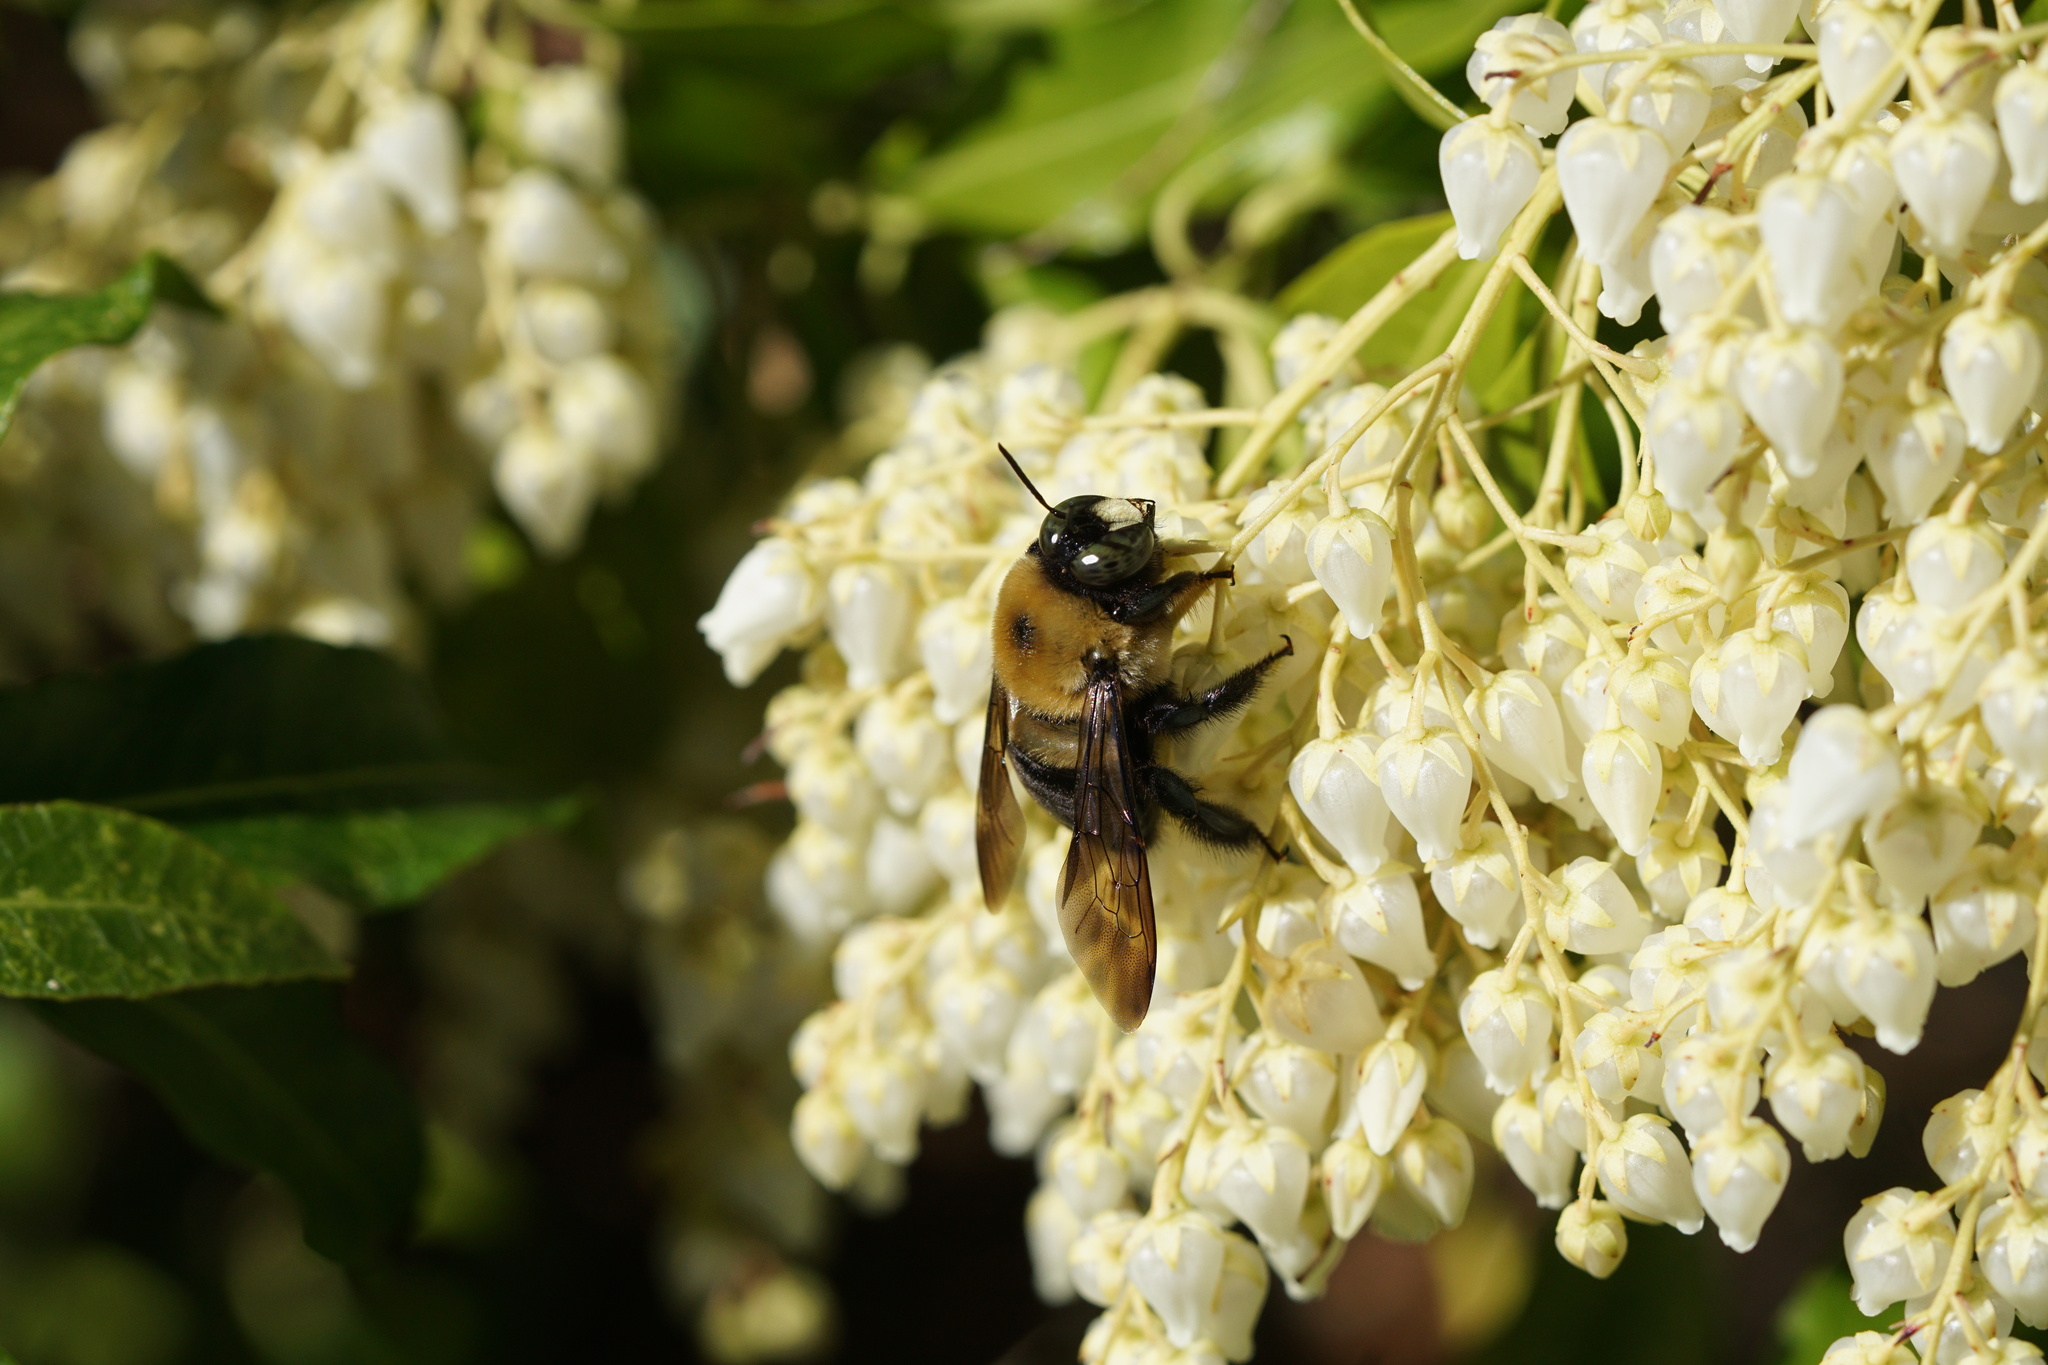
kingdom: Animalia
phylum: Arthropoda
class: Insecta
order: Hymenoptera
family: Apidae
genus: Xylocopa
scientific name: Xylocopa virginica
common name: Carpenter bee
